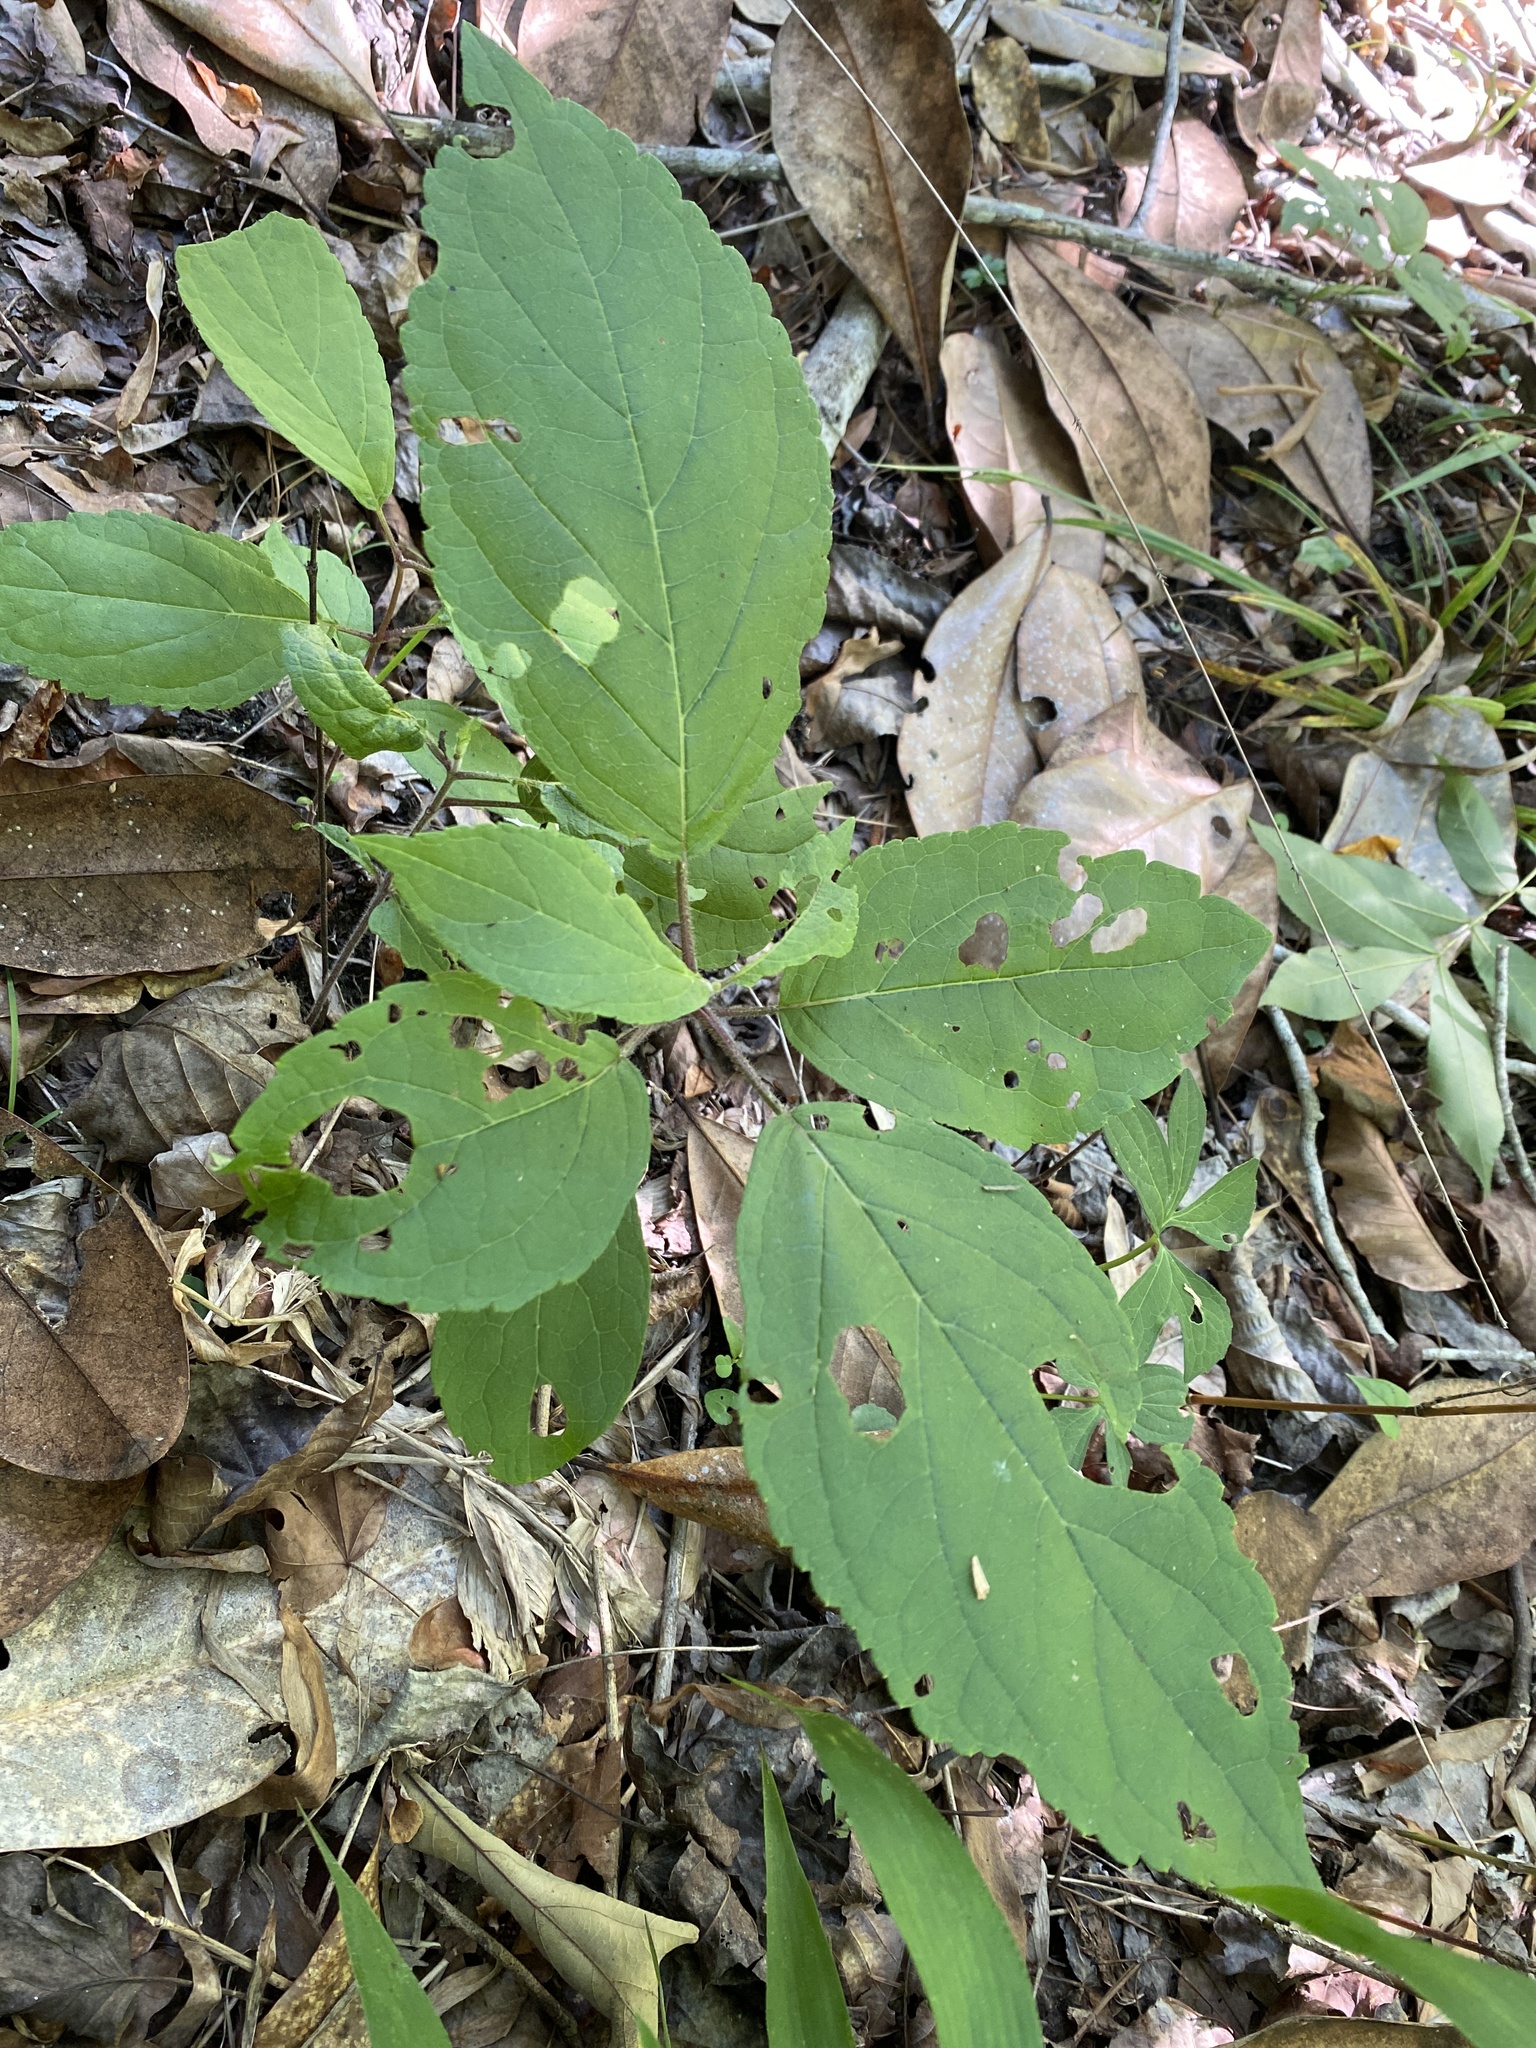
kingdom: Plantae
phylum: Tracheophyta
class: Magnoliopsida
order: Lamiales
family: Lamiaceae
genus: Collinsonia
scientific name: Collinsonia
